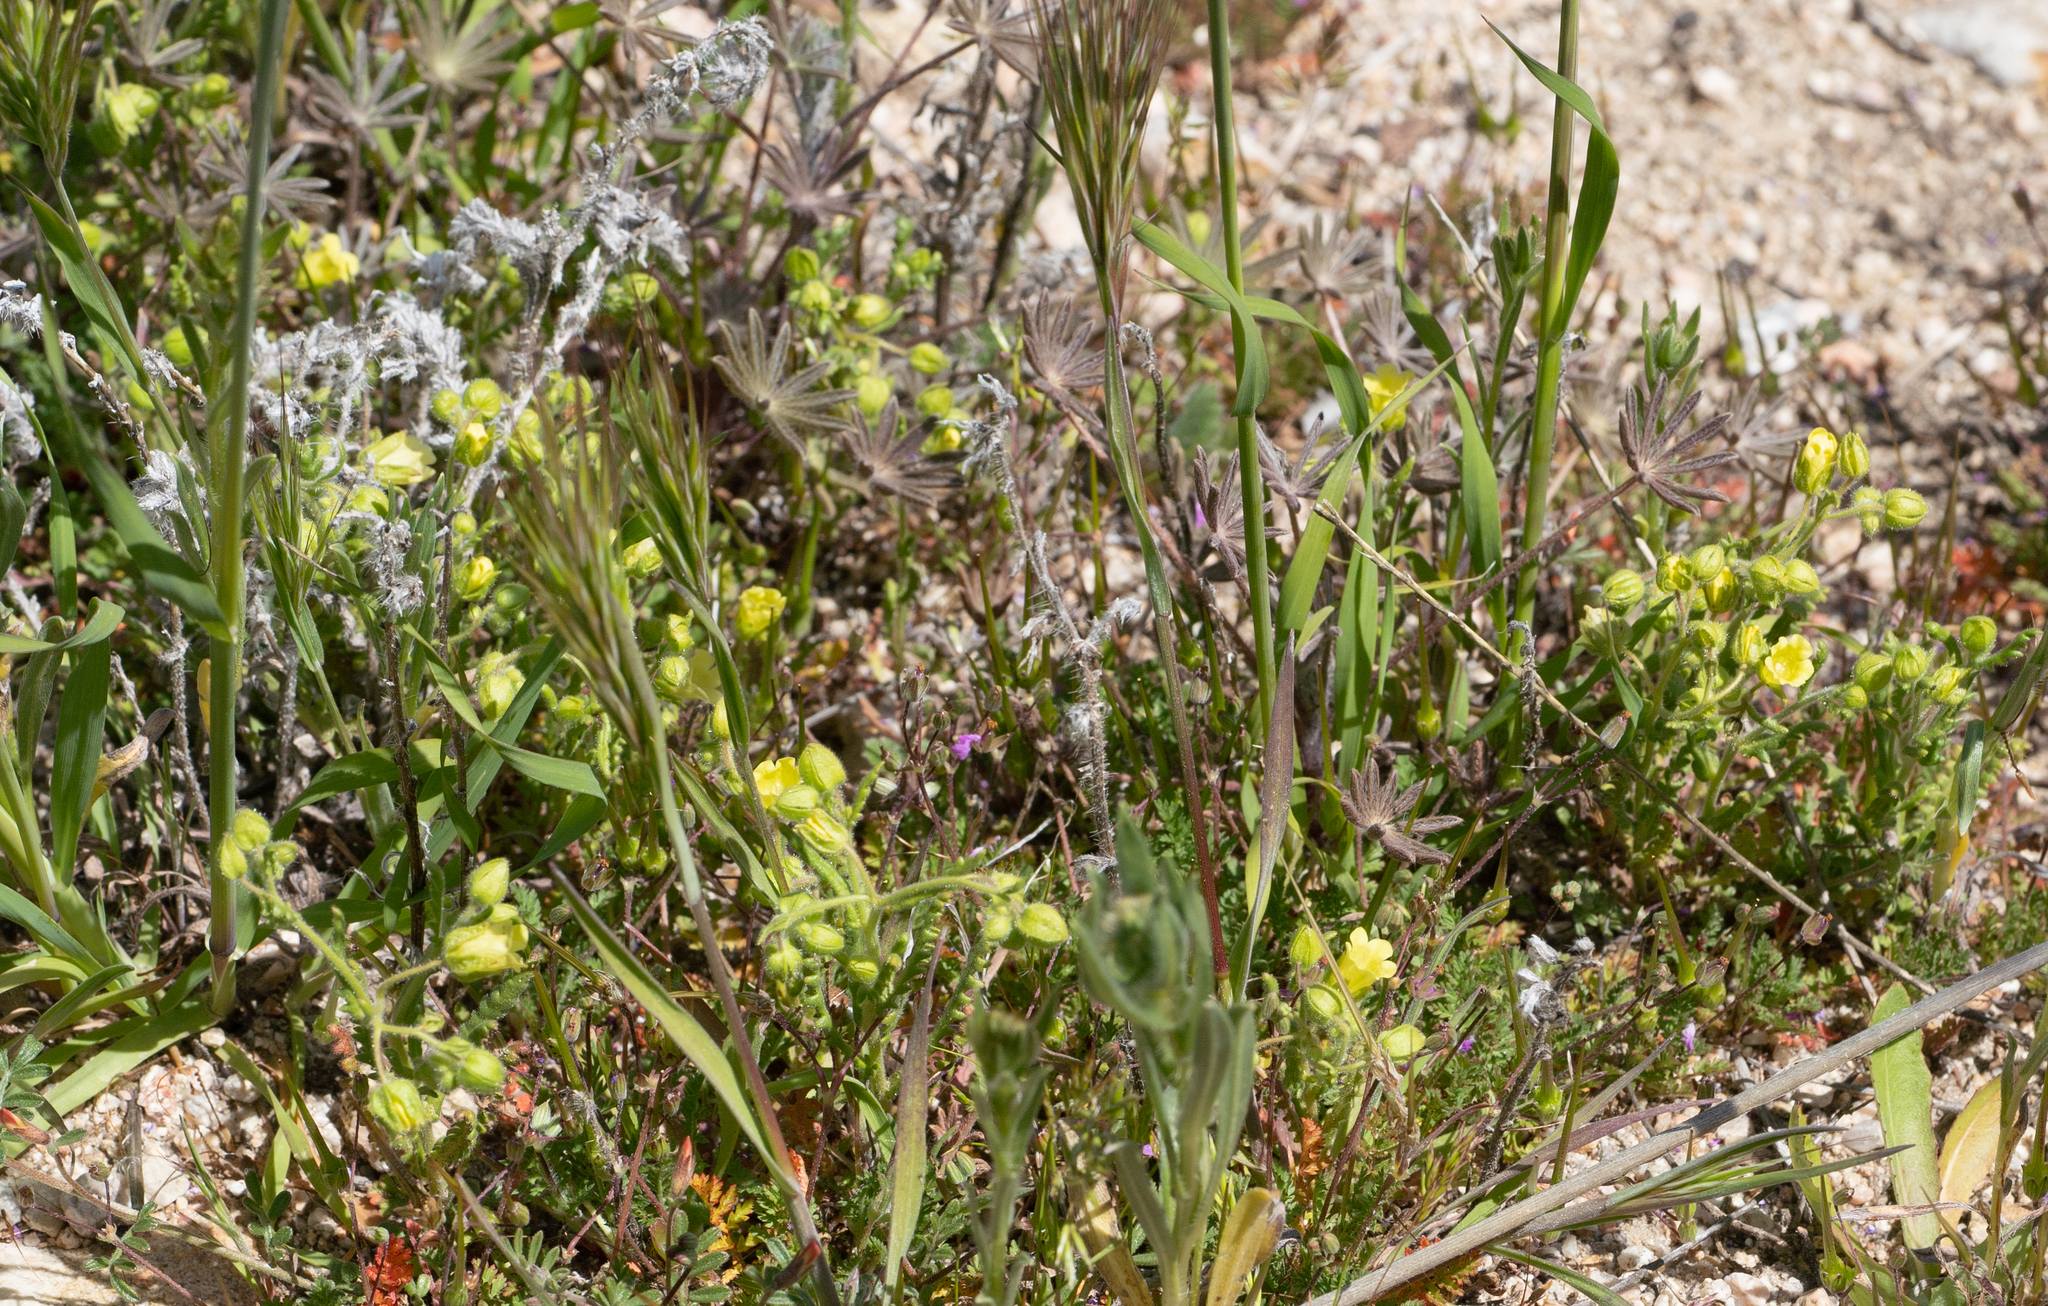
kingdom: Plantae
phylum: Tracheophyta
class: Magnoliopsida
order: Boraginales
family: Hydrophyllaceae
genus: Emmenanthe
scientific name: Emmenanthe penduliflora
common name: Whispering-bells
